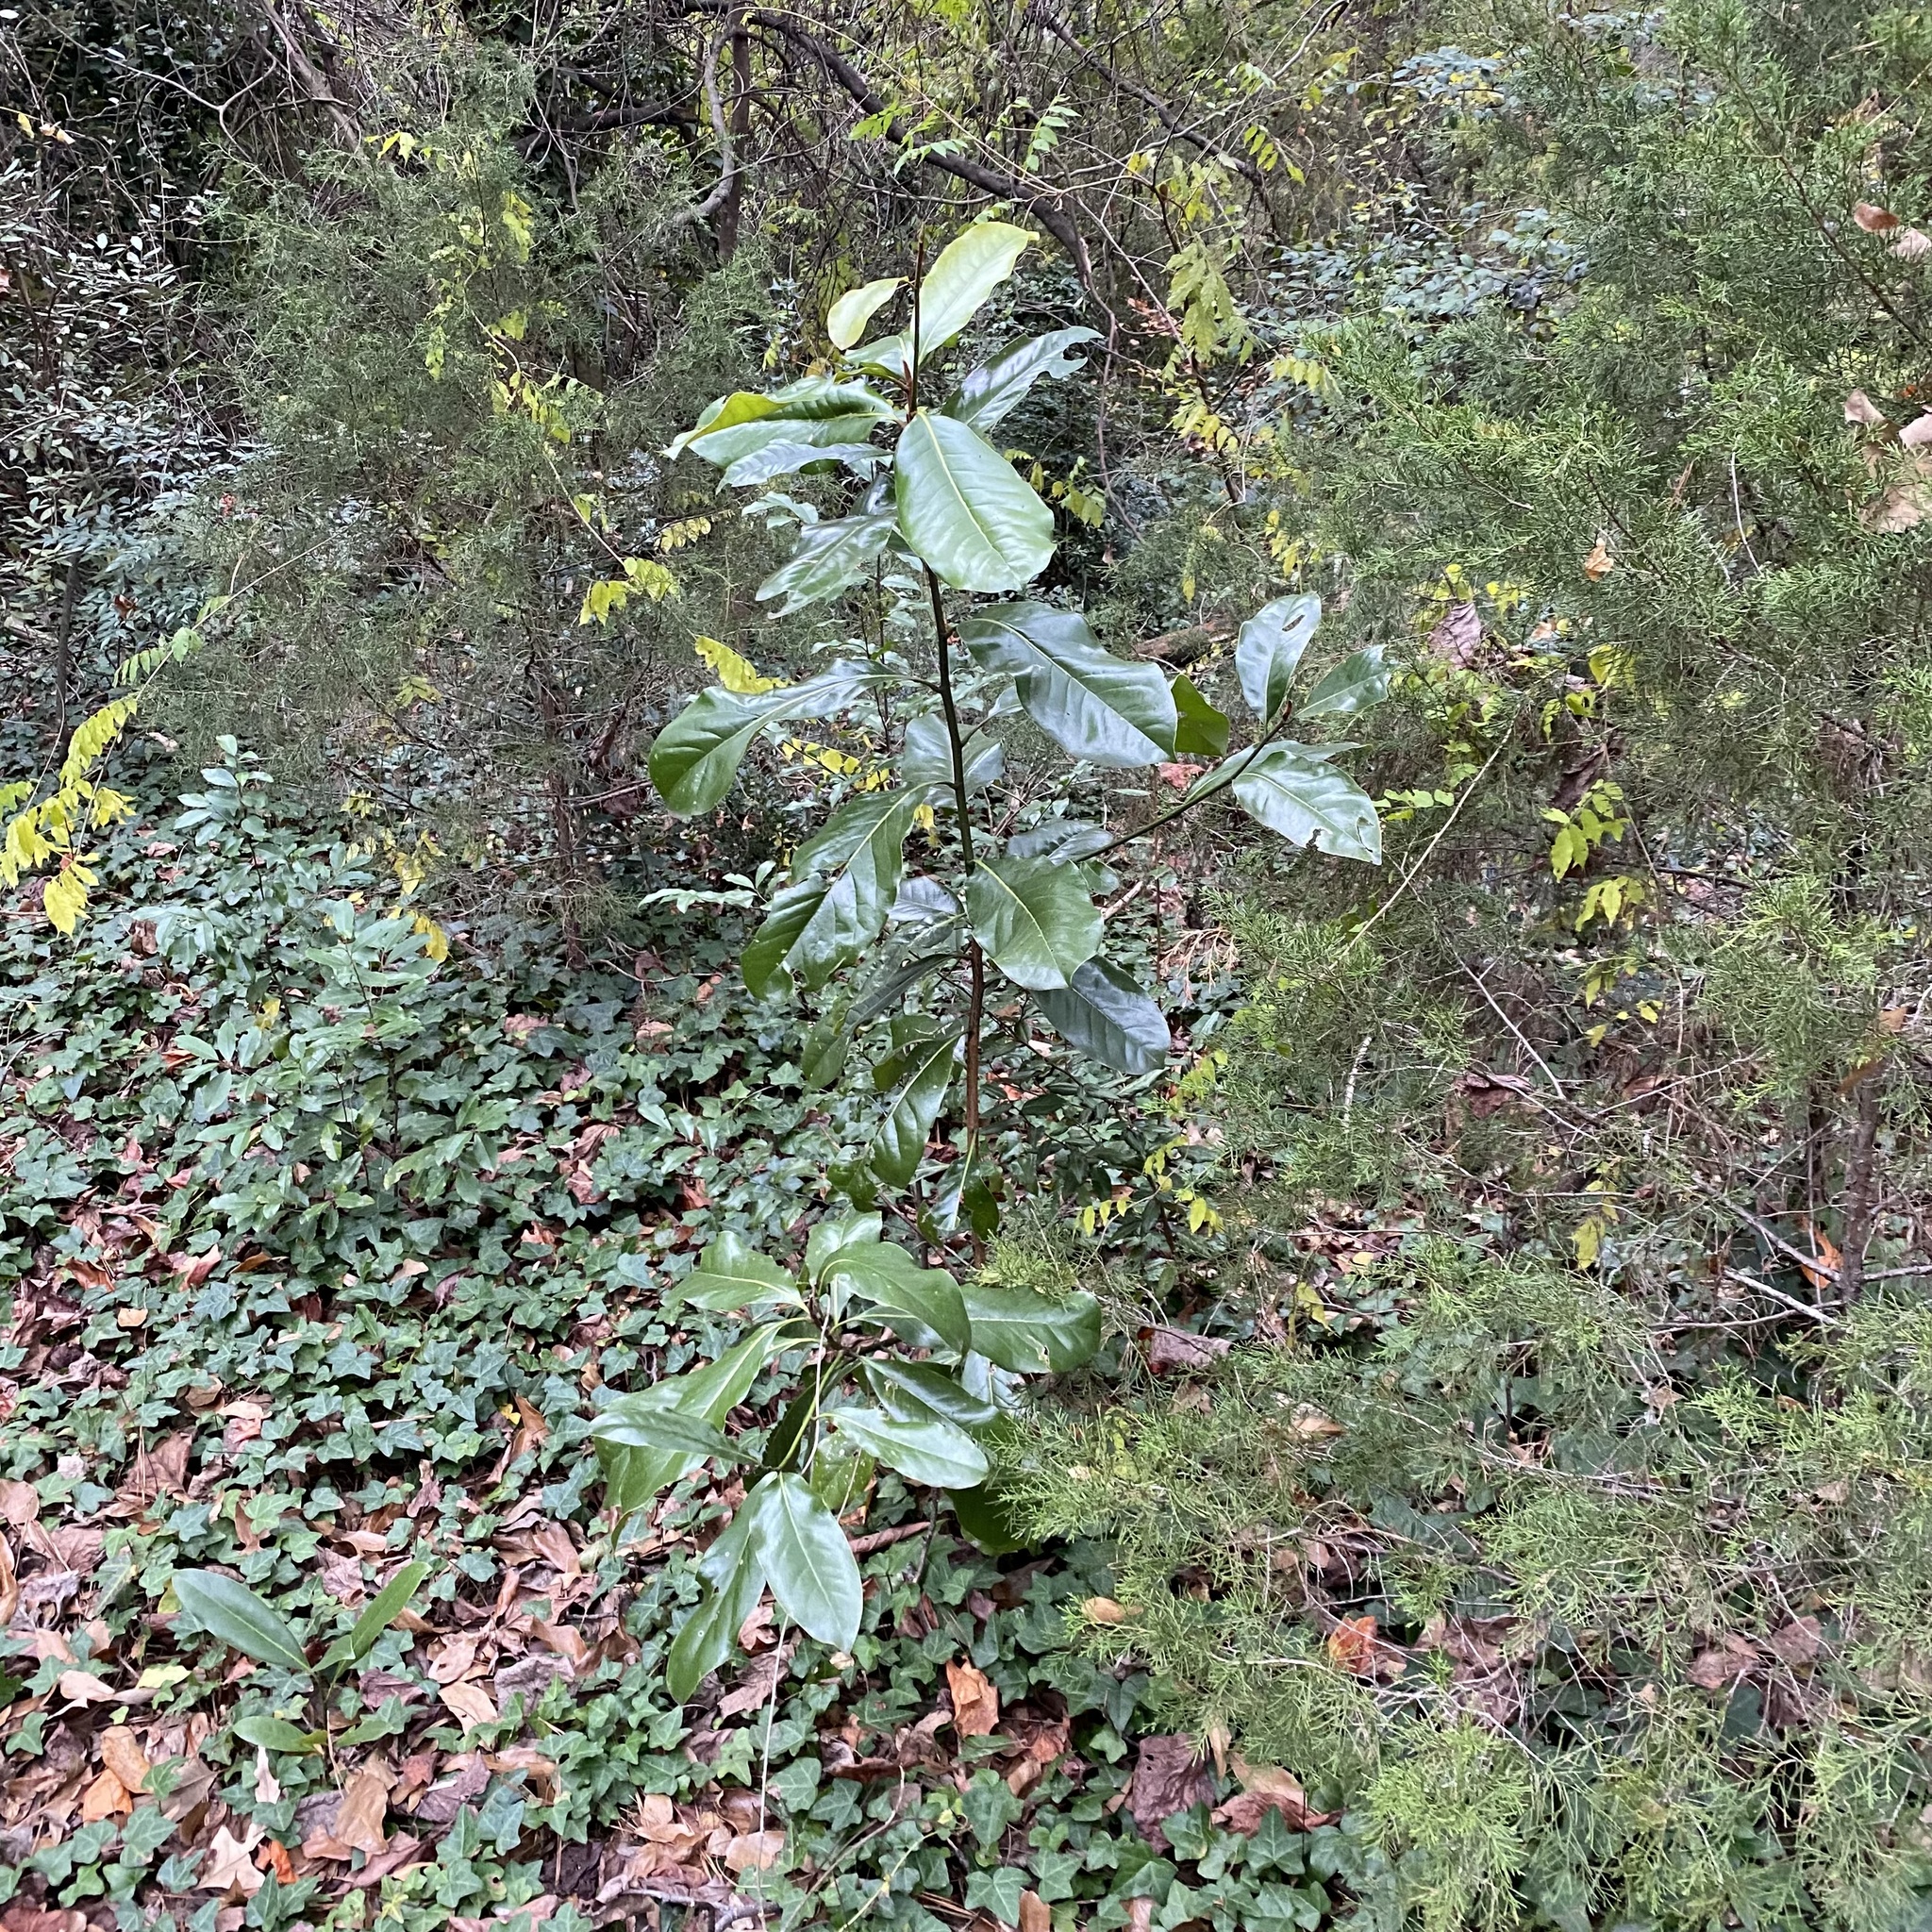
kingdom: Plantae
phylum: Tracheophyta
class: Magnoliopsida
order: Magnoliales
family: Magnoliaceae
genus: Magnolia
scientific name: Magnolia grandiflora
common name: Southern magnolia
